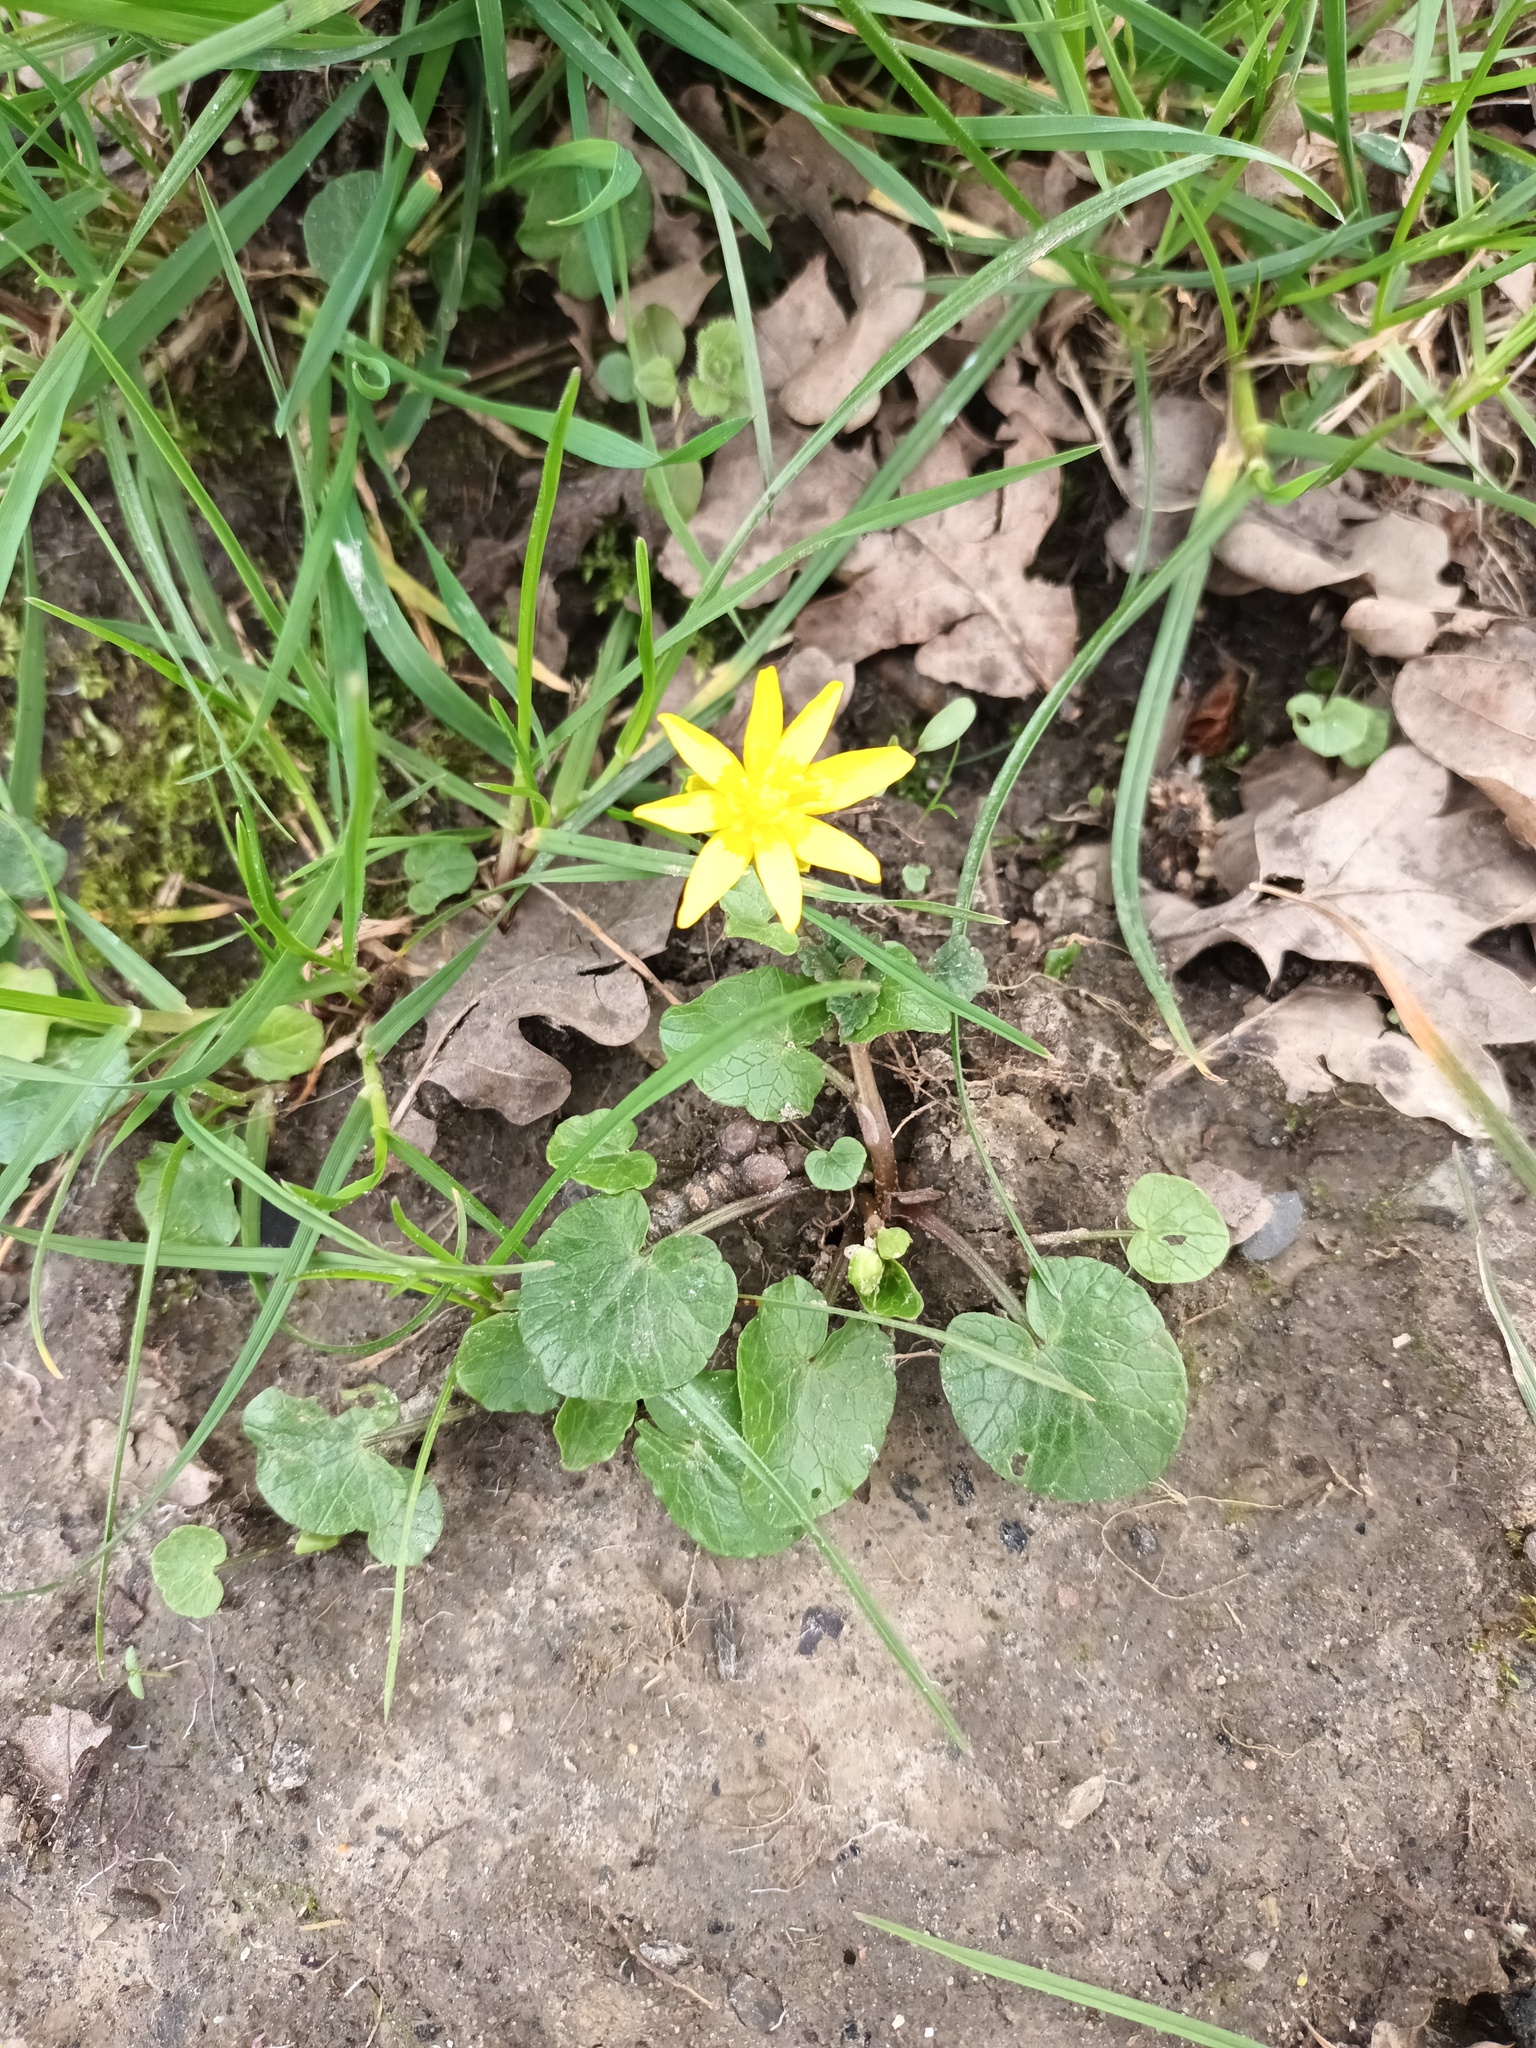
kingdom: Plantae
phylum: Tracheophyta
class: Magnoliopsida
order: Ranunculales
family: Ranunculaceae
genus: Ficaria
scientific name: Ficaria verna
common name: Lesser celandine
